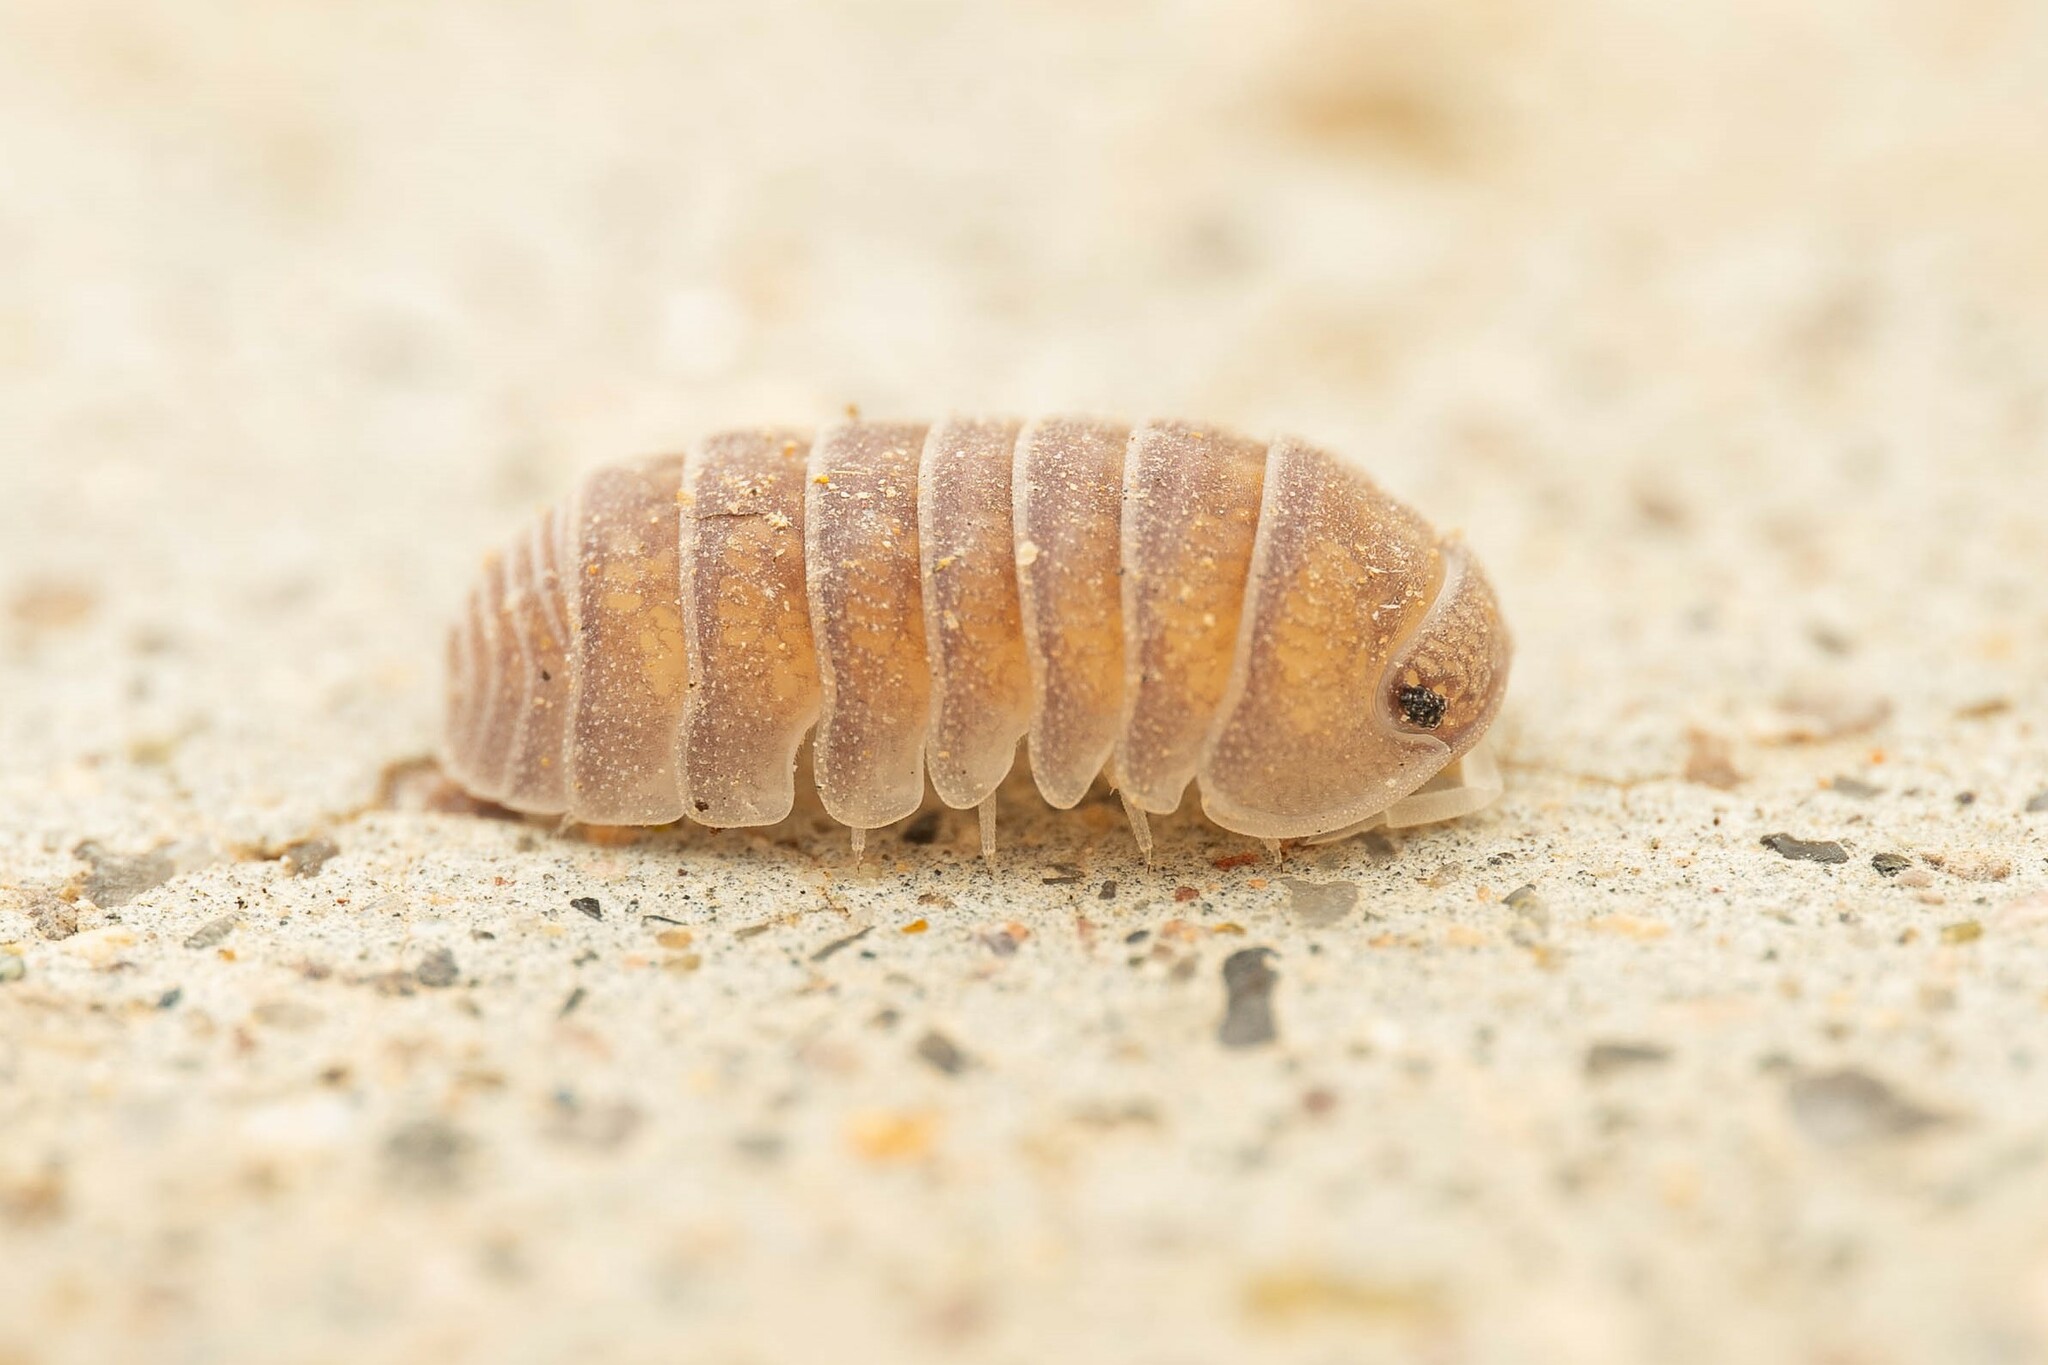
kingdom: Animalia
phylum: Arthropoda
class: Malacostraca
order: Isopoda
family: Armadillidae
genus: Venezillo
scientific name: Venezillo arizonicus
